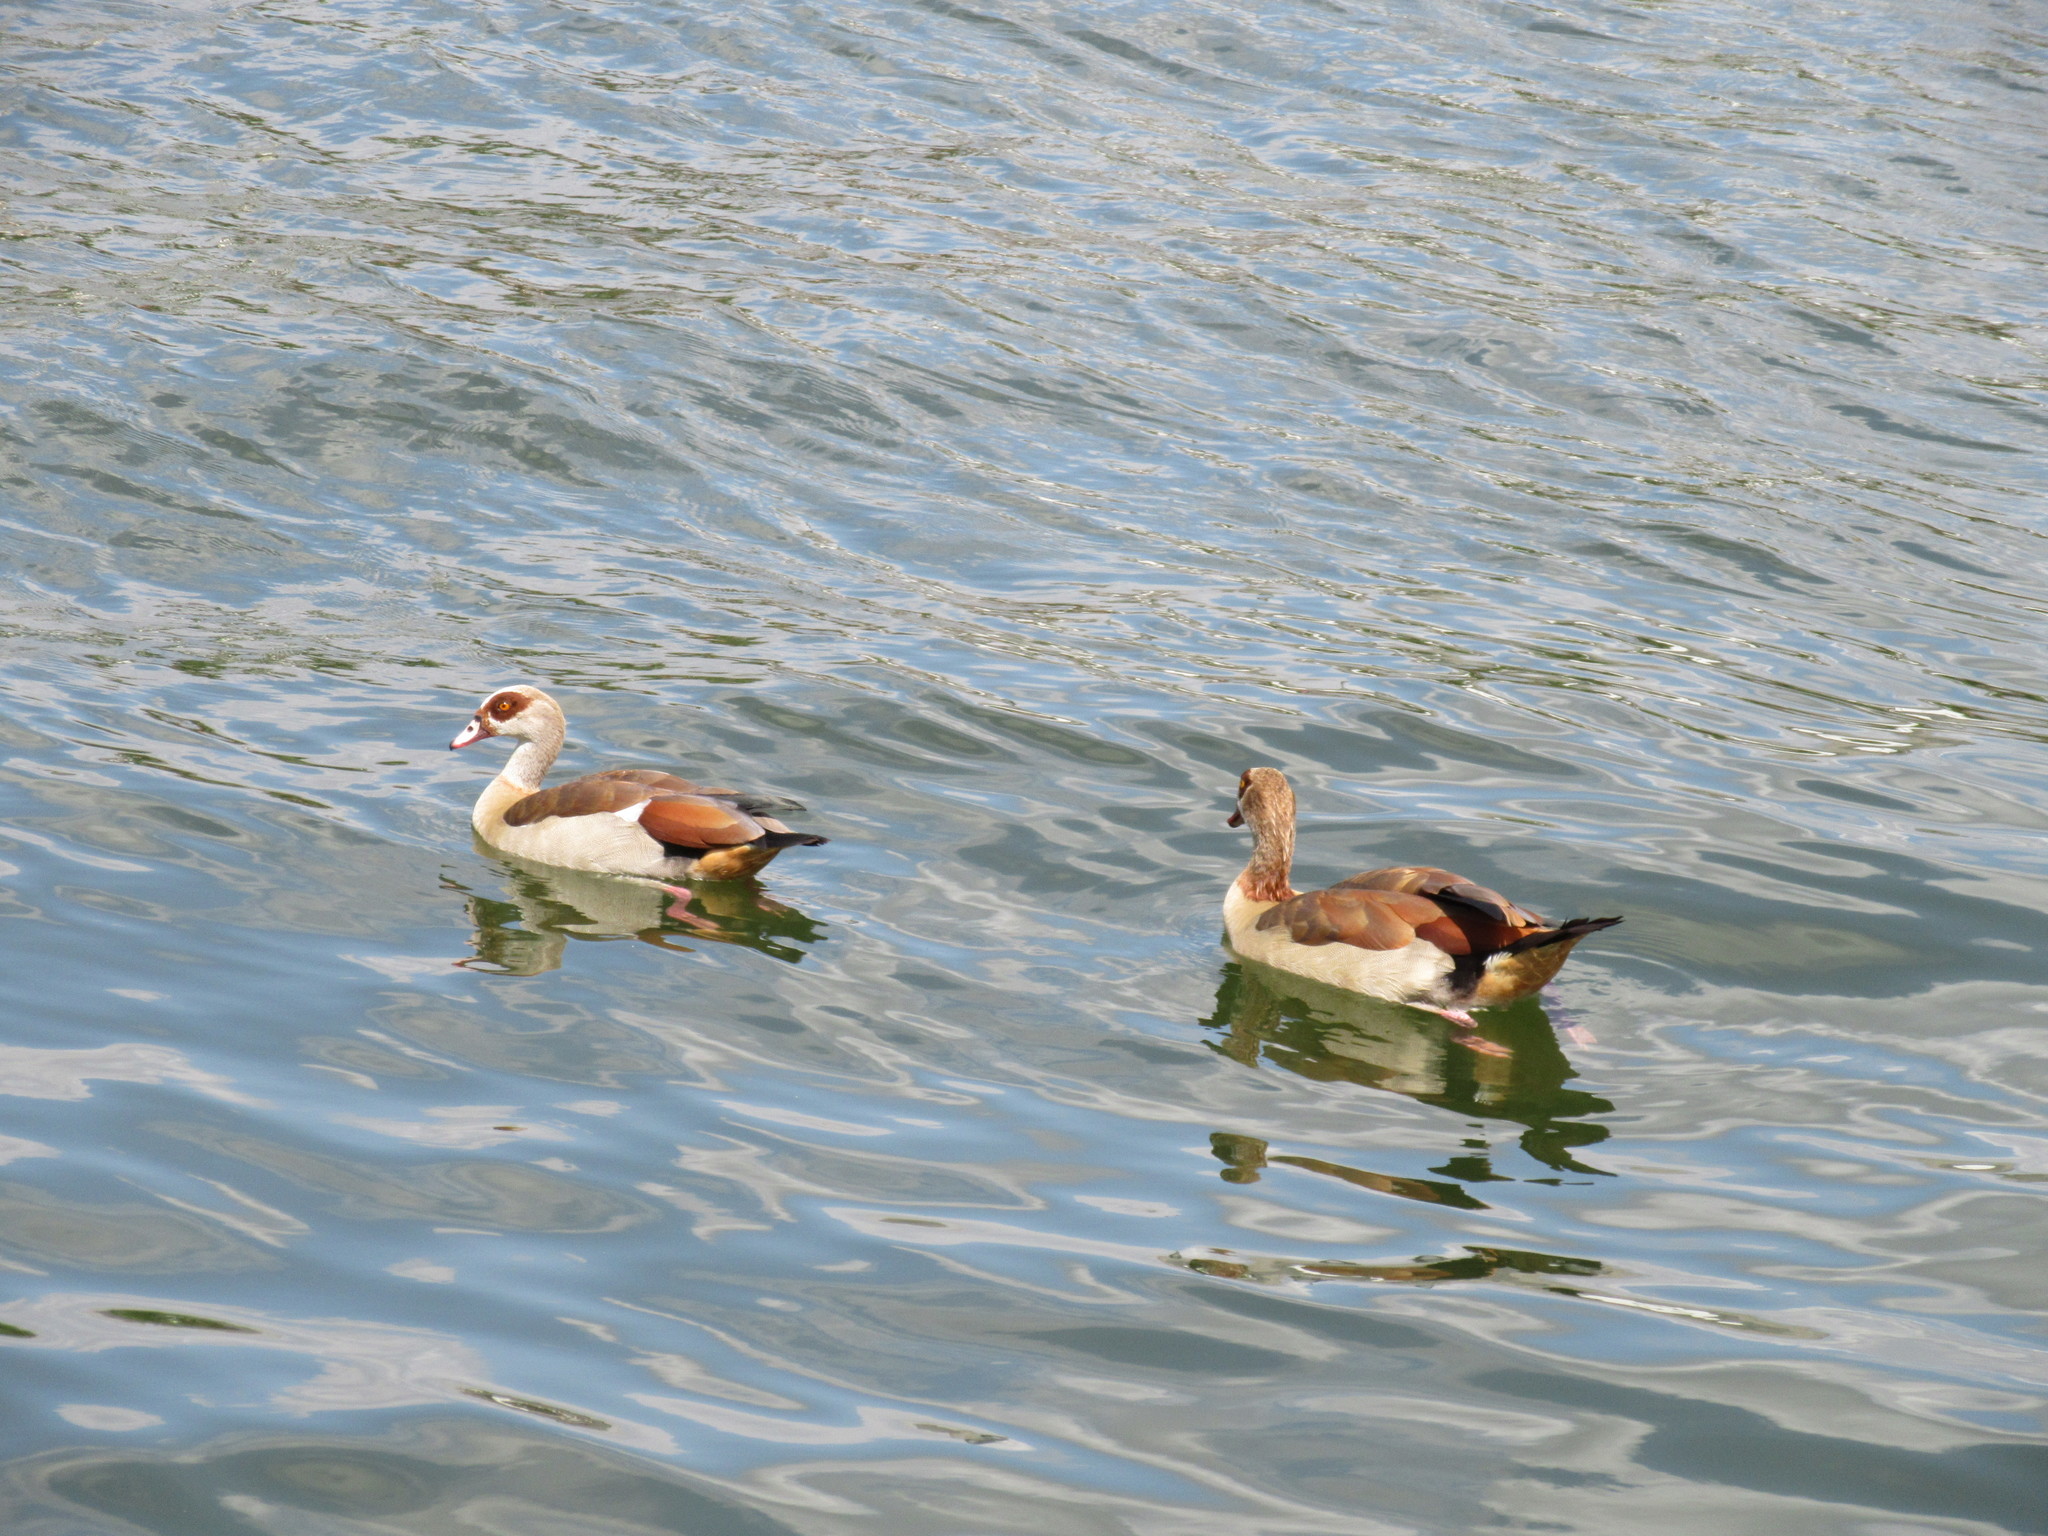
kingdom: Animalia
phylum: Chordata
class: Aves
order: Anseriformes
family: Anatidae
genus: Alopochen
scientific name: Alopochen aegyptiaca
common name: Egyptian goose
